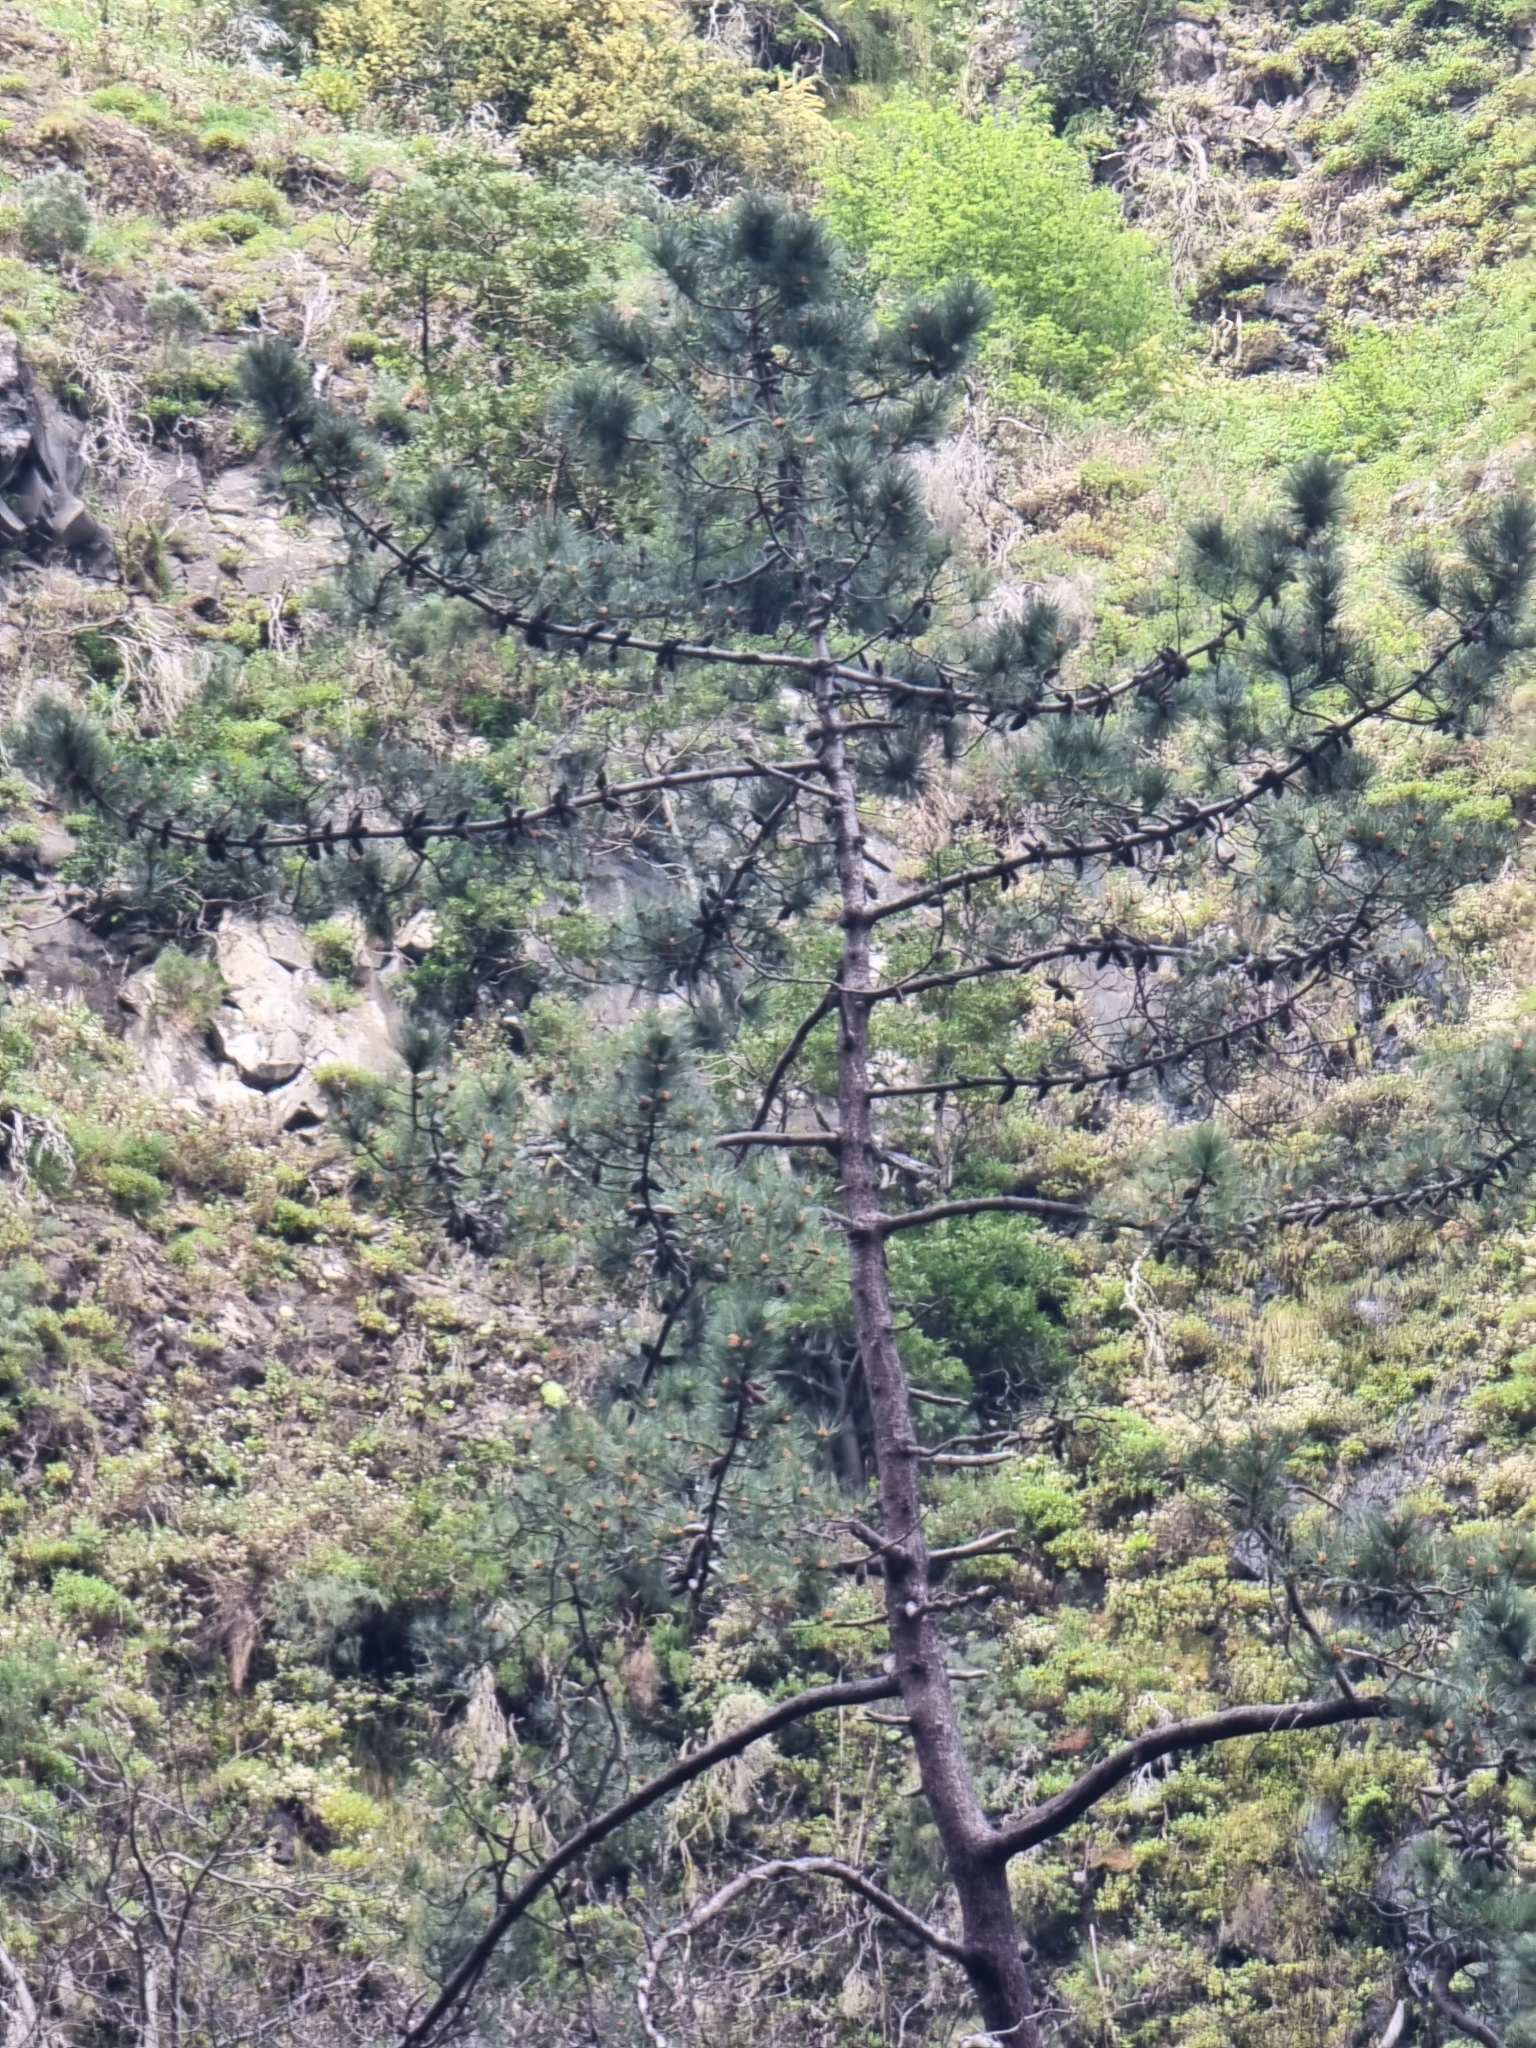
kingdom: Plantae
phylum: Tracheophyta
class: Pinopsida
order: Pinales
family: Pinaceae
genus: Pinus
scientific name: Pinus pinaster
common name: Maritime pine
